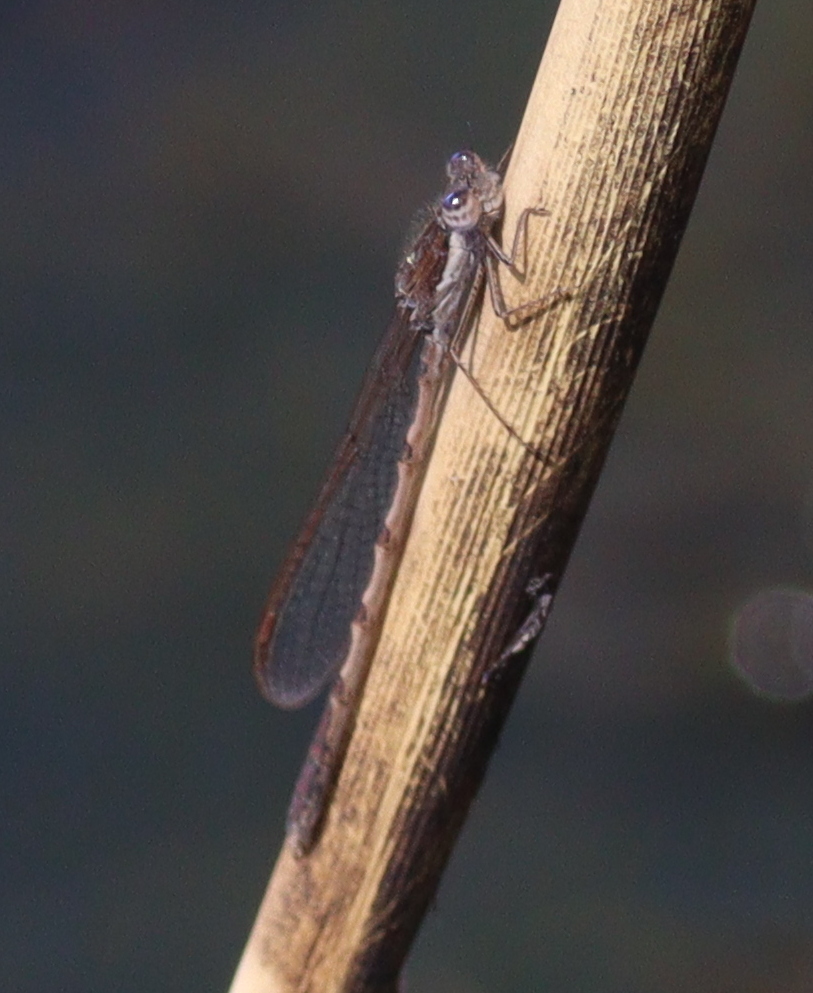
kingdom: Animalia
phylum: Arthropoda
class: Insecta
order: Odonata
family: Lestidae
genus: Sympecma
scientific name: Sympecma fusca
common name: Common winter damsel
